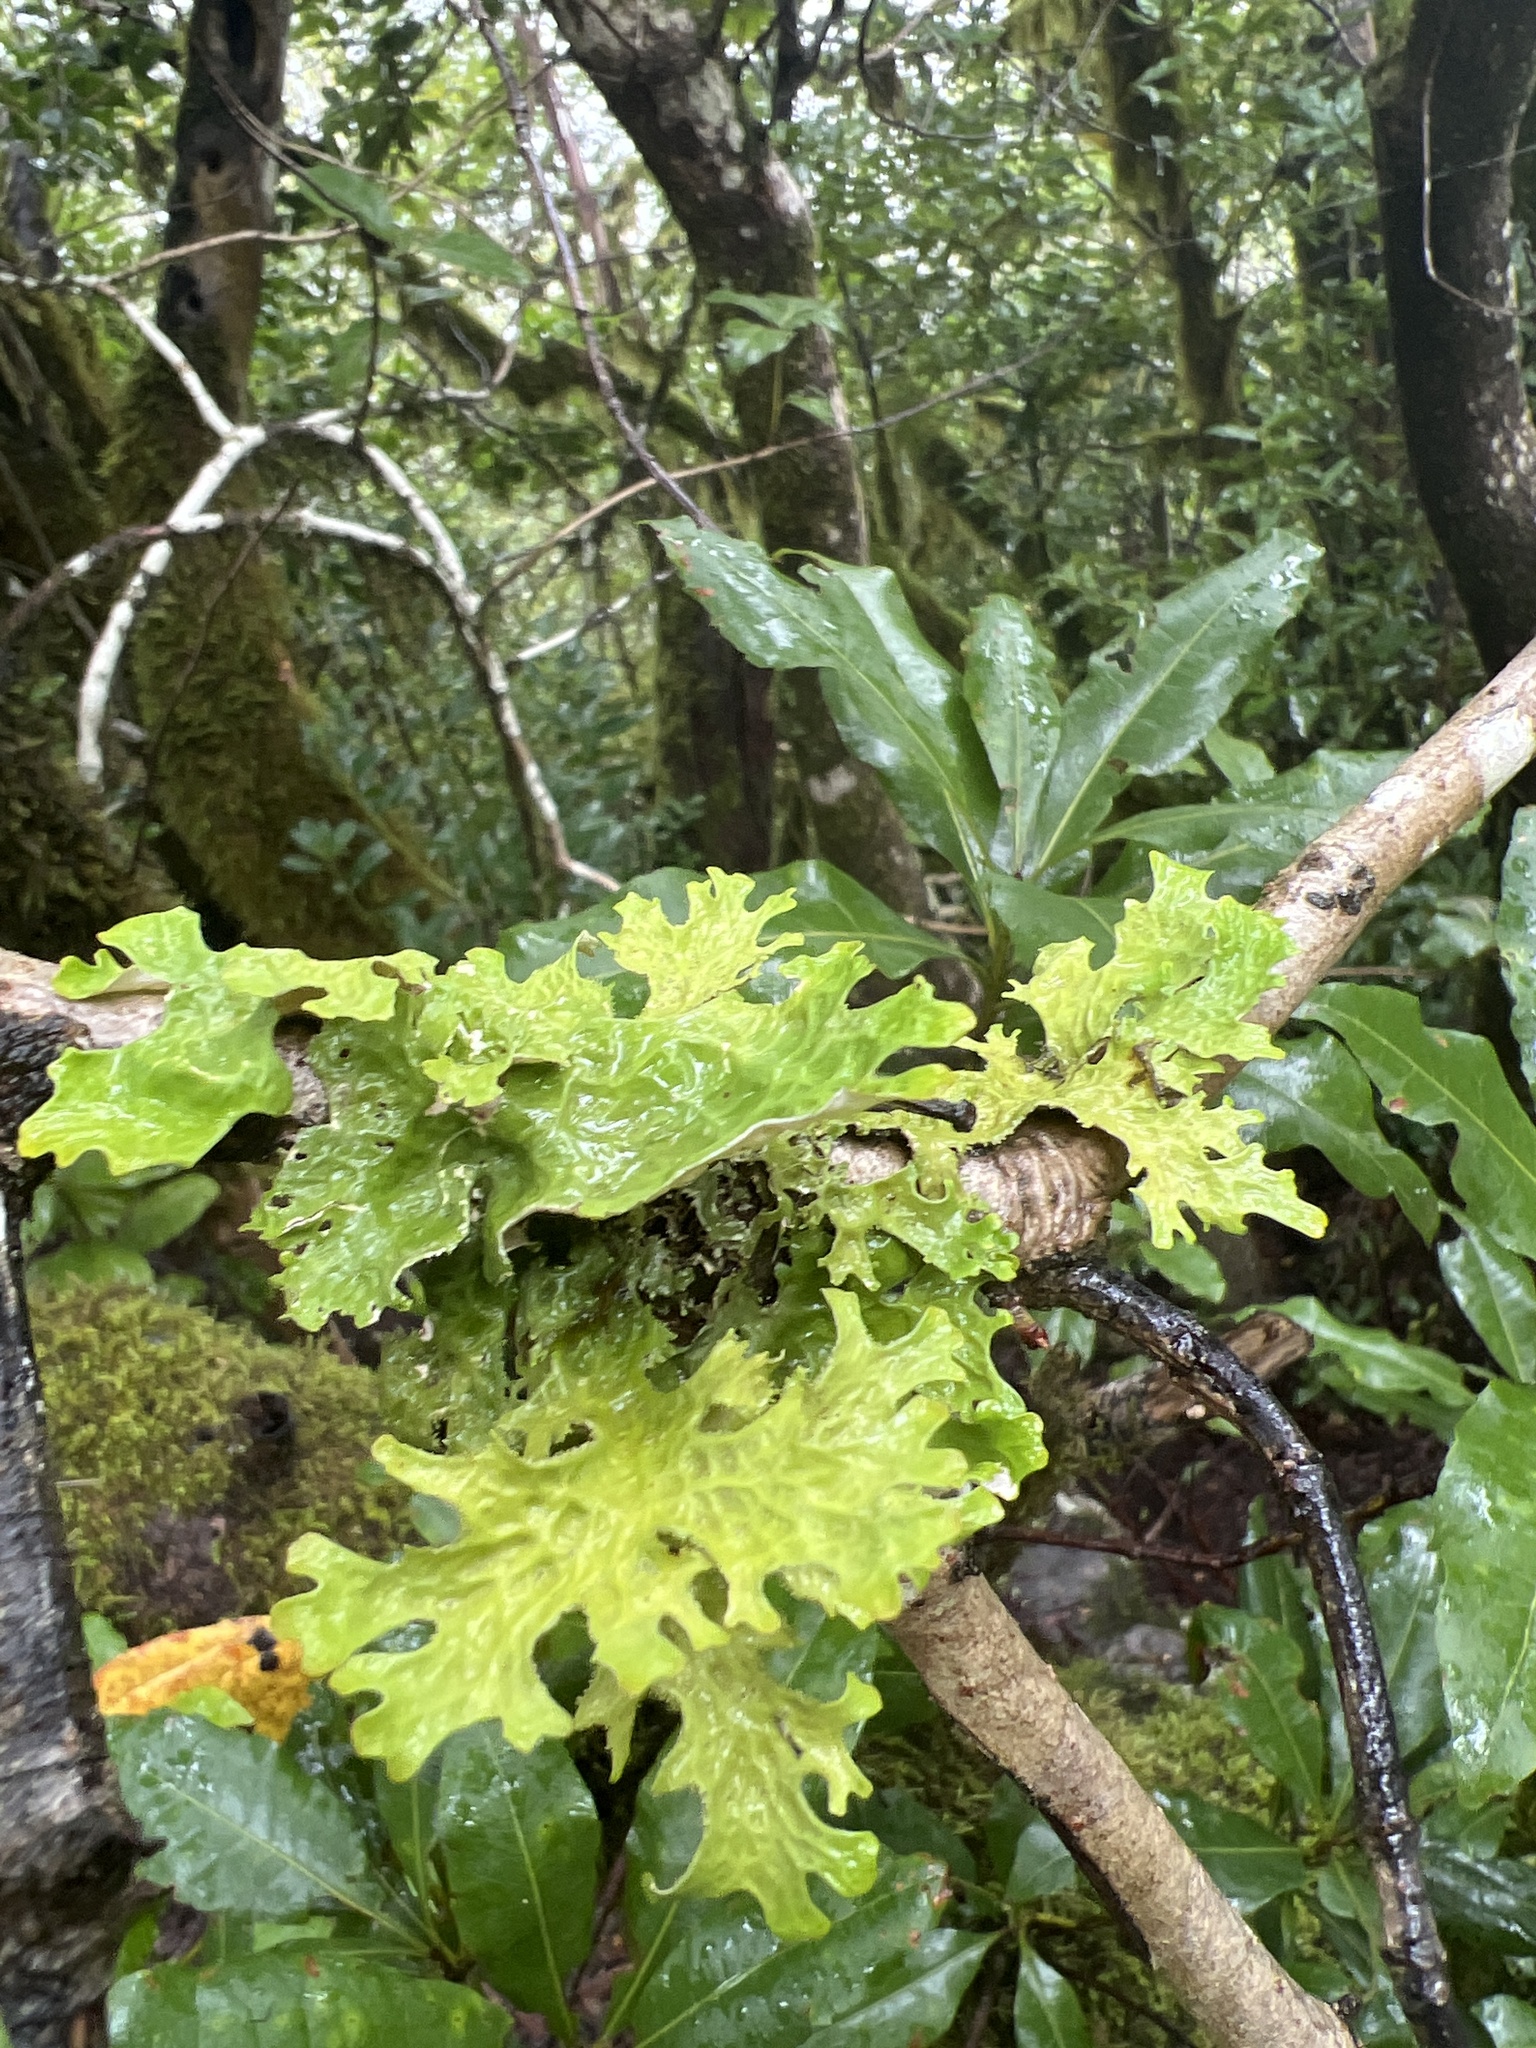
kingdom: Fungi
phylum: Ascomycota
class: Lecanoromycetes
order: Peltigerales
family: Lobariaceae
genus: Lobaria
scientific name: Lobaria pulmonaria
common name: Lungwort
